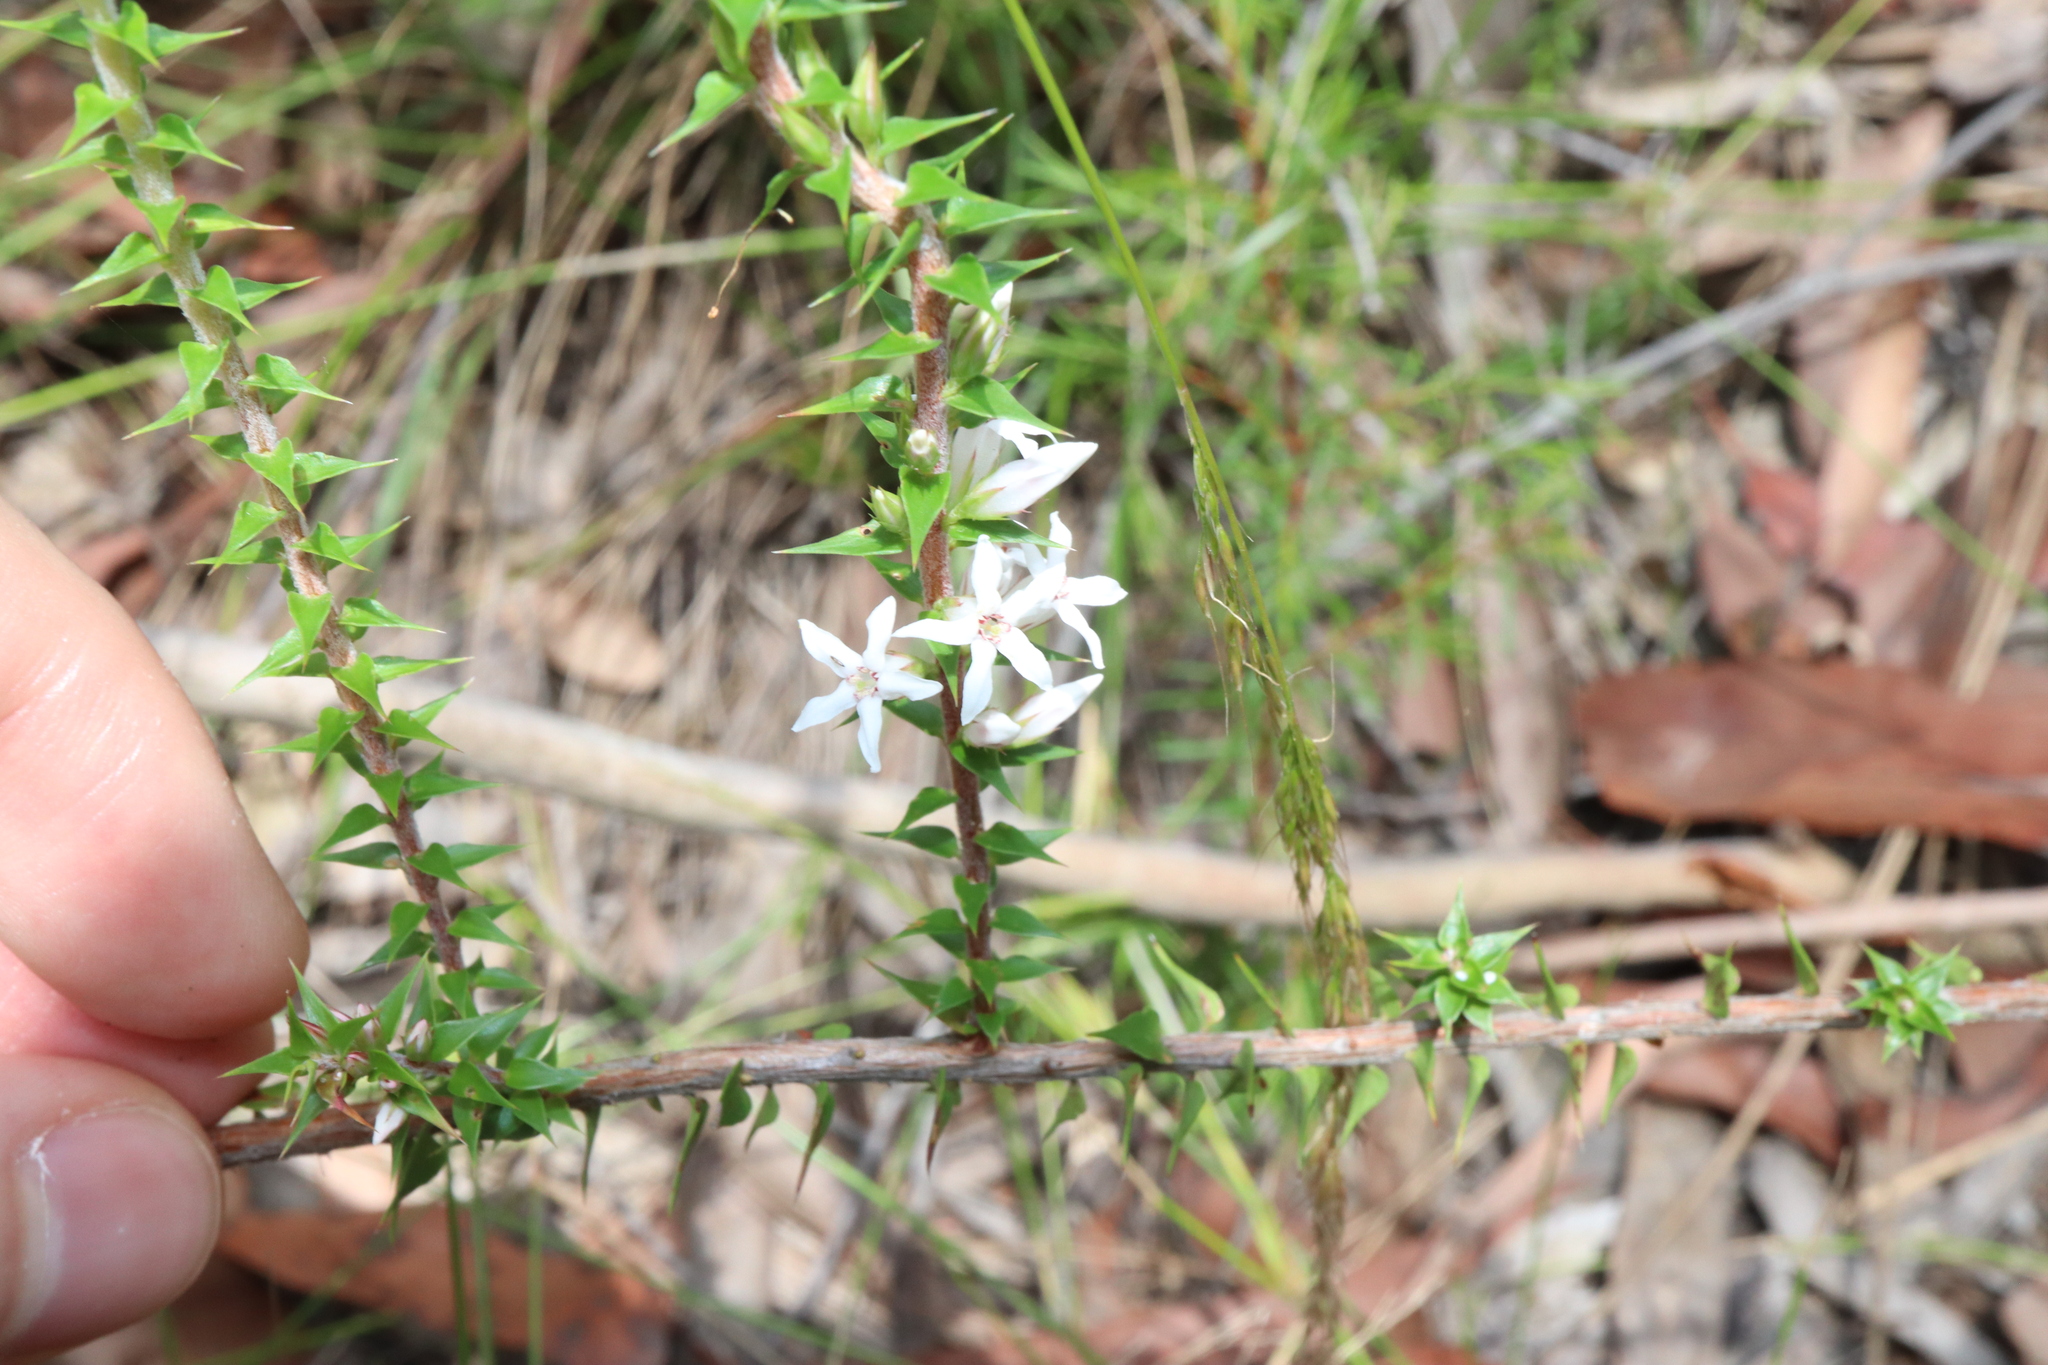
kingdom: Plantae
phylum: Tracheophyta
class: Magnoliopsida
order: Ericales
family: Ericaceae
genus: Epacris
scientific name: Epacris pulchella
